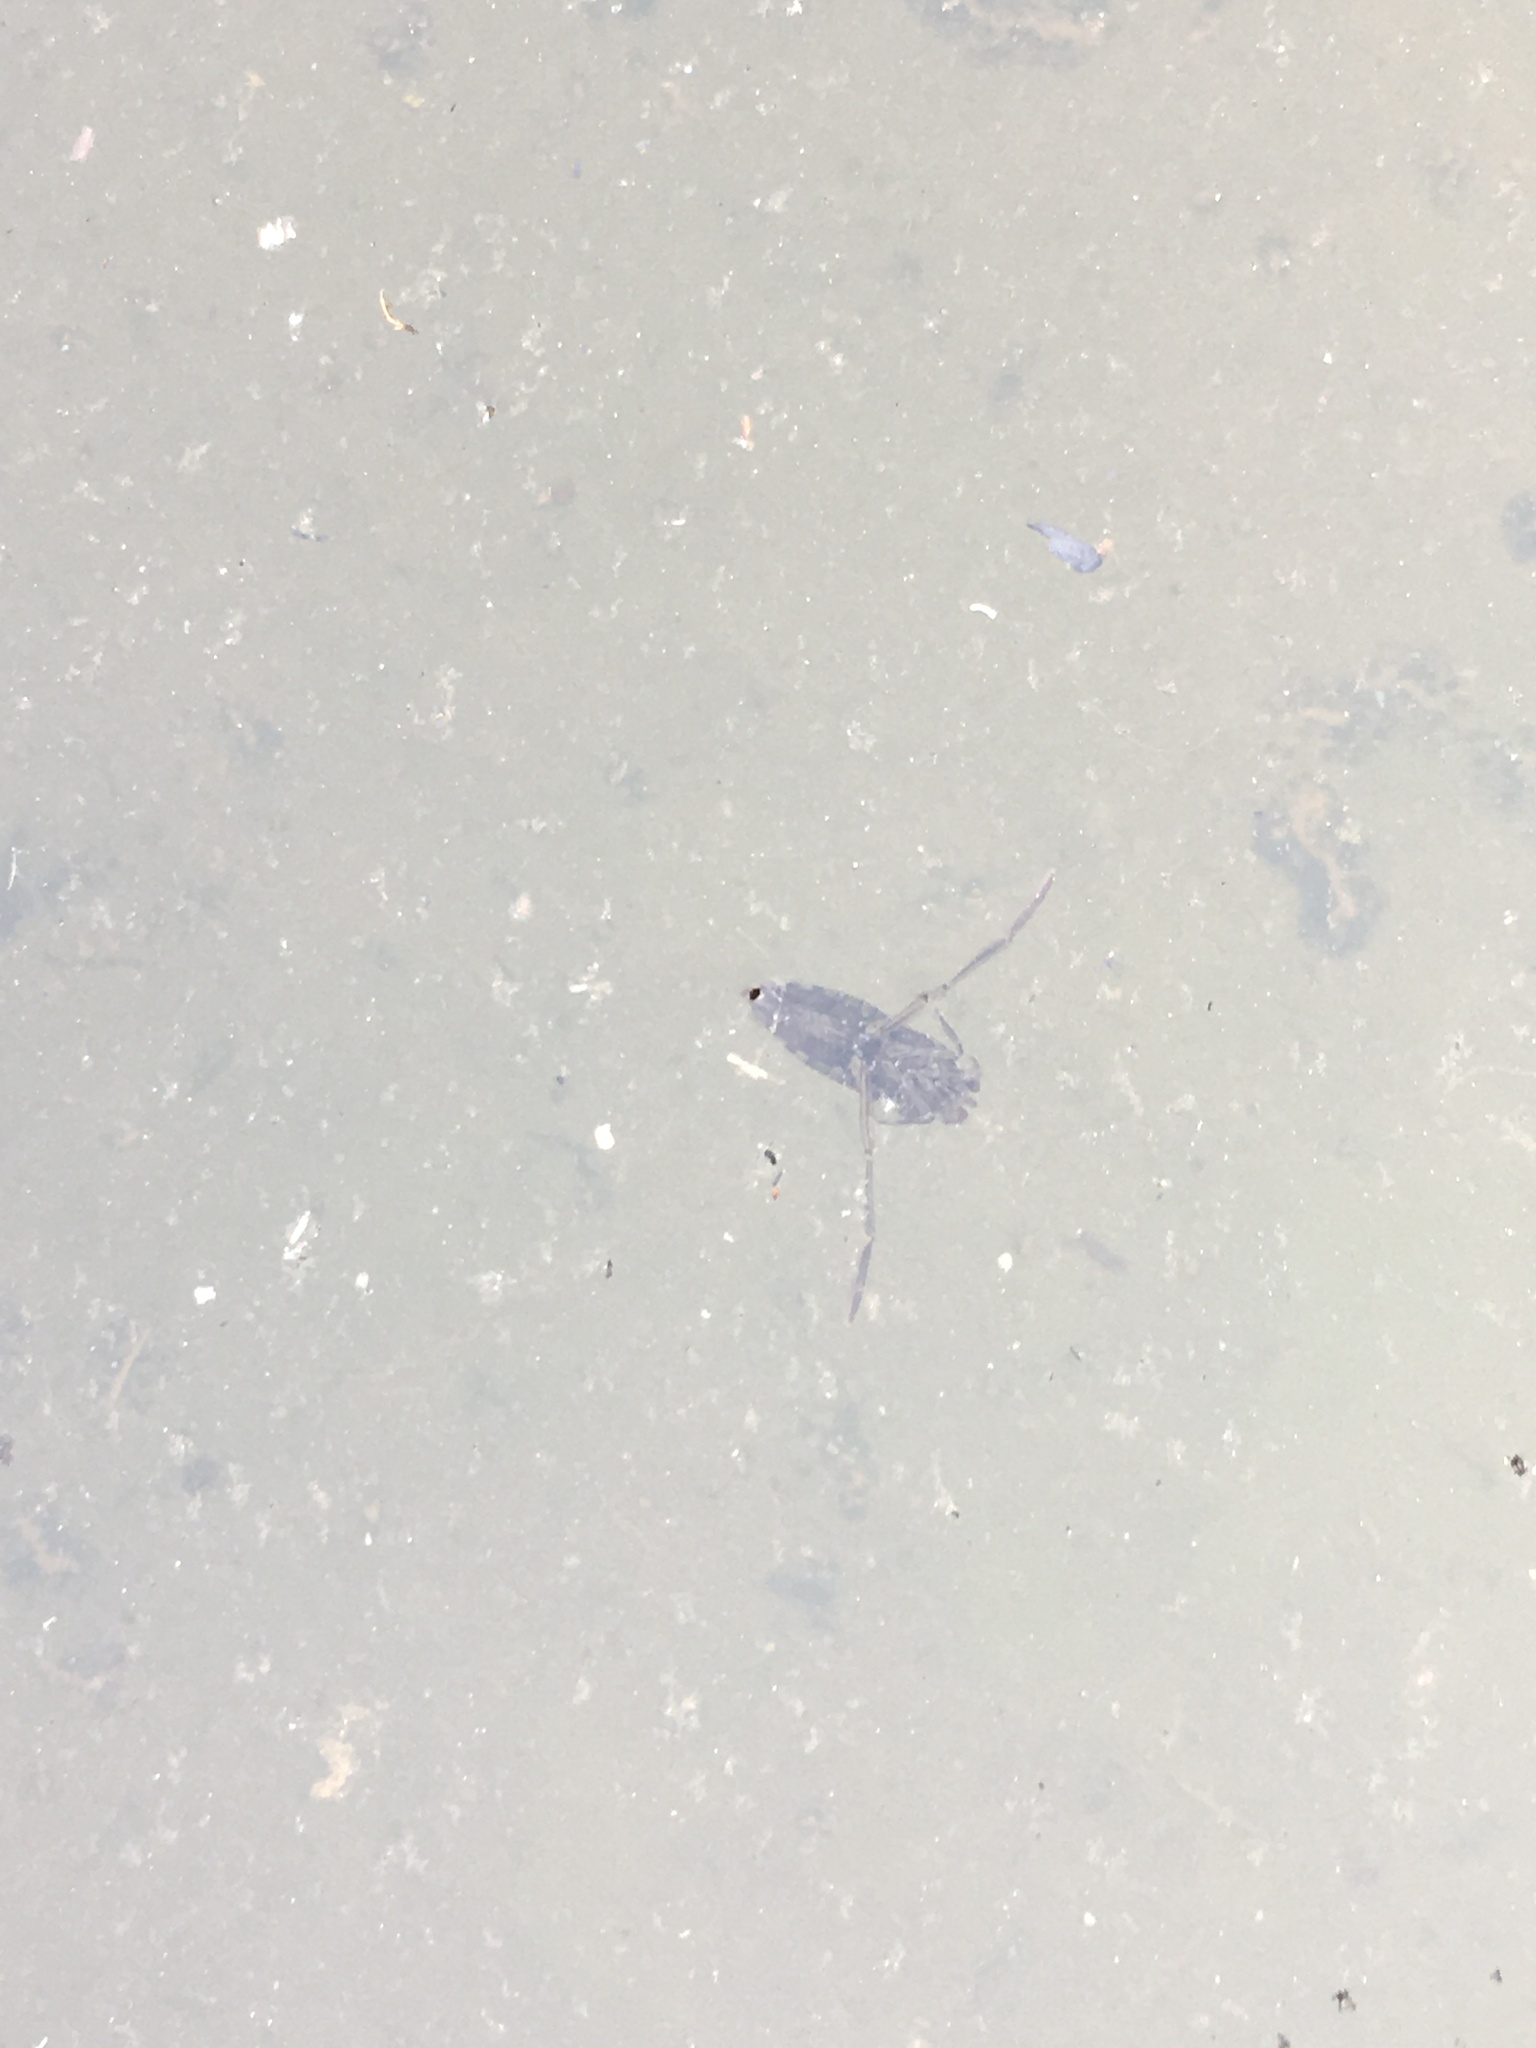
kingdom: Animalia
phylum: Arthropoda
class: Insecta
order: Hemiptera
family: Notonectidae
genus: Notonecta
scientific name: Notonecta kirbyi
